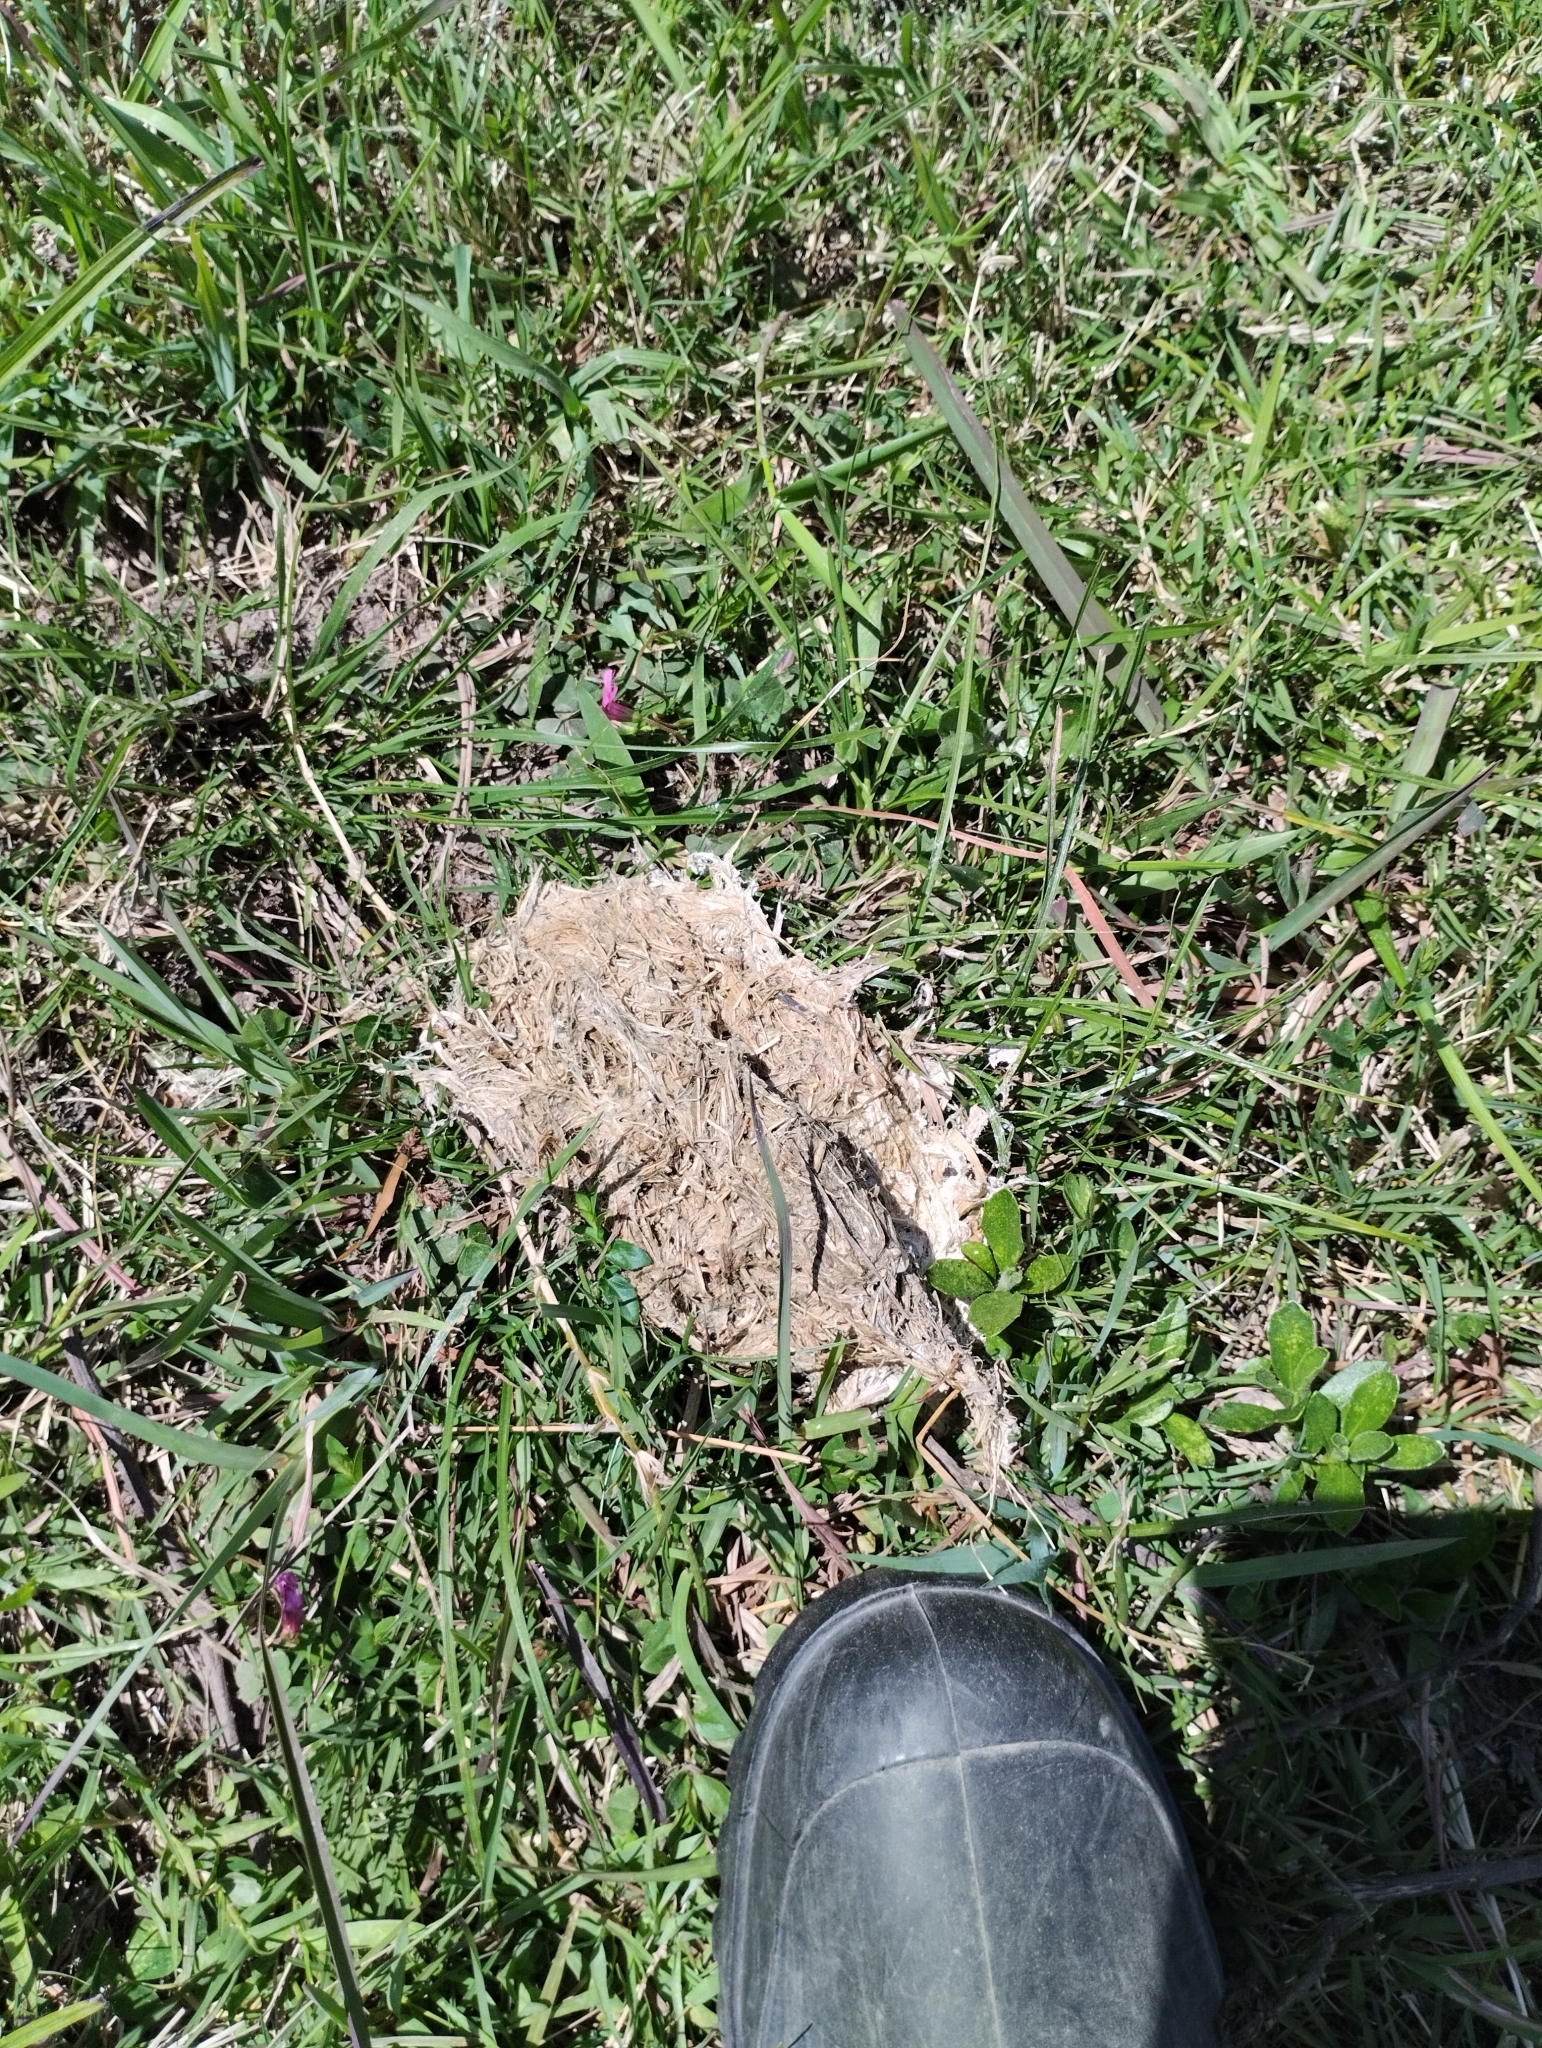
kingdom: Animalia
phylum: Chordata
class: Aves
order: Rheiformes
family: Rheidae
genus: Rhea
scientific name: Rhea americana
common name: Greater rhea
